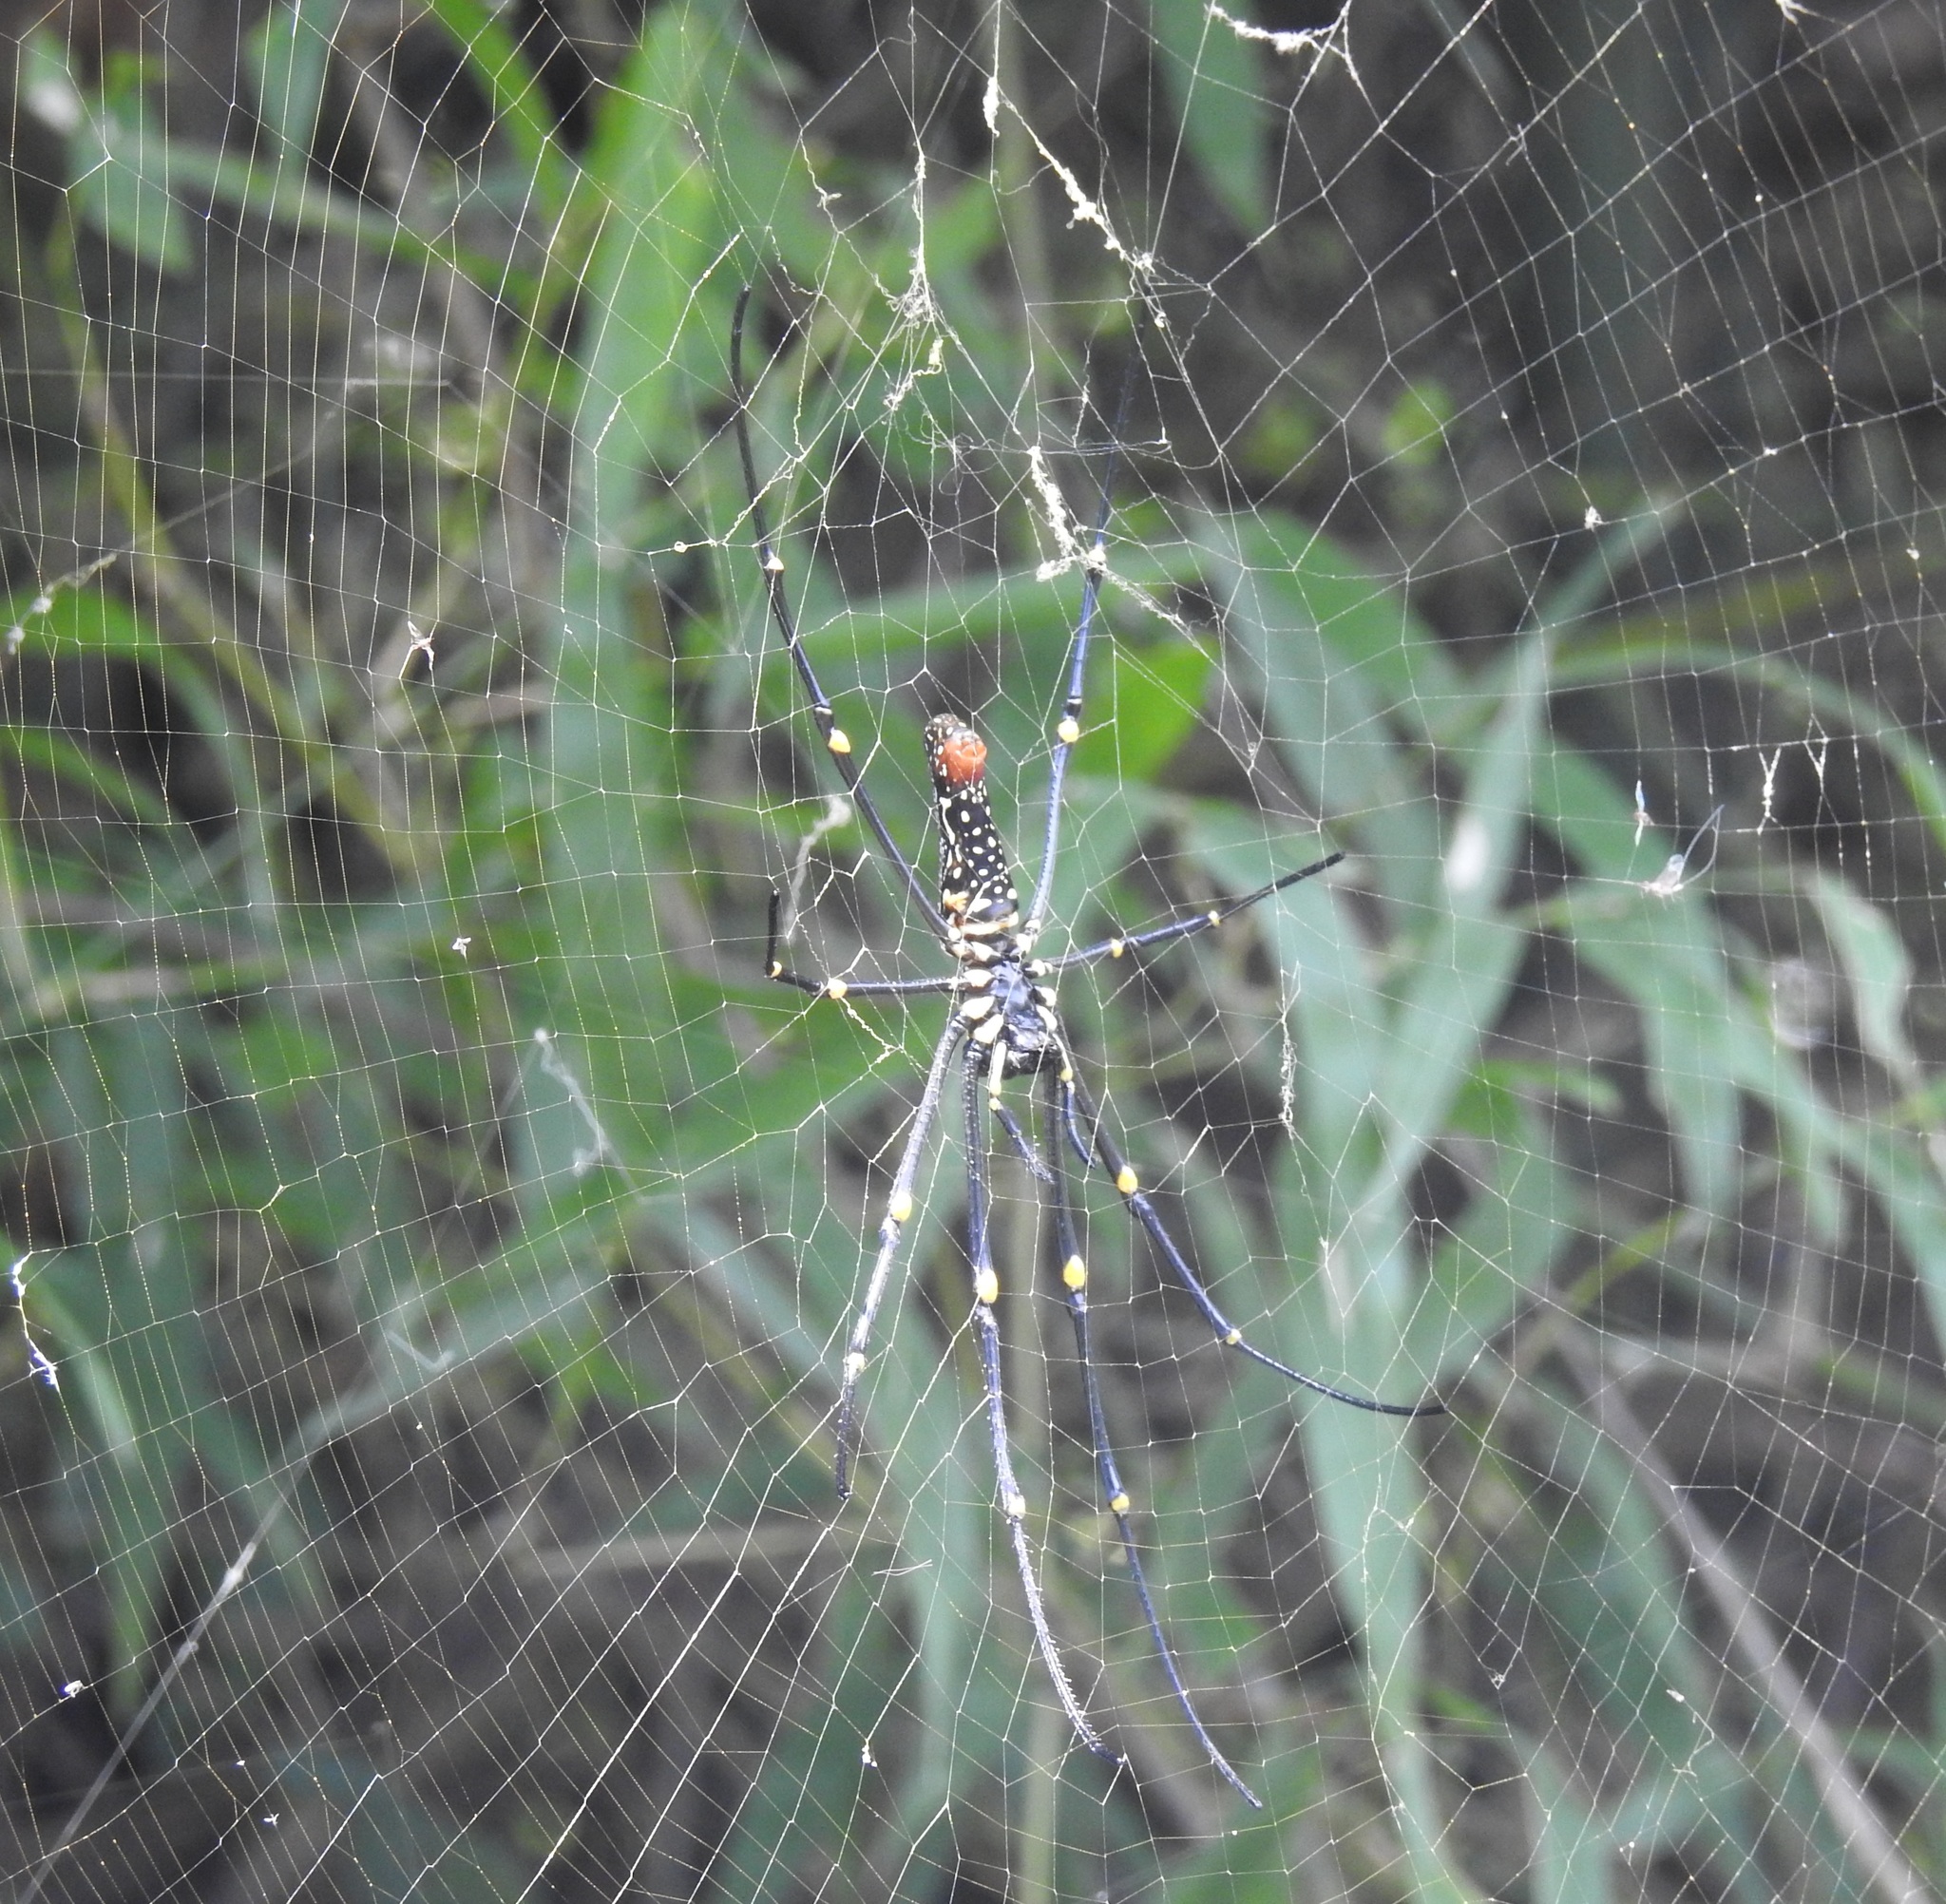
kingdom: Animalia
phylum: Arthropoda
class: Arachnida
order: Araneae
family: Araneidae
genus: Nephila
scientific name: Nephila pilipes
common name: Giant golden orb weaver
